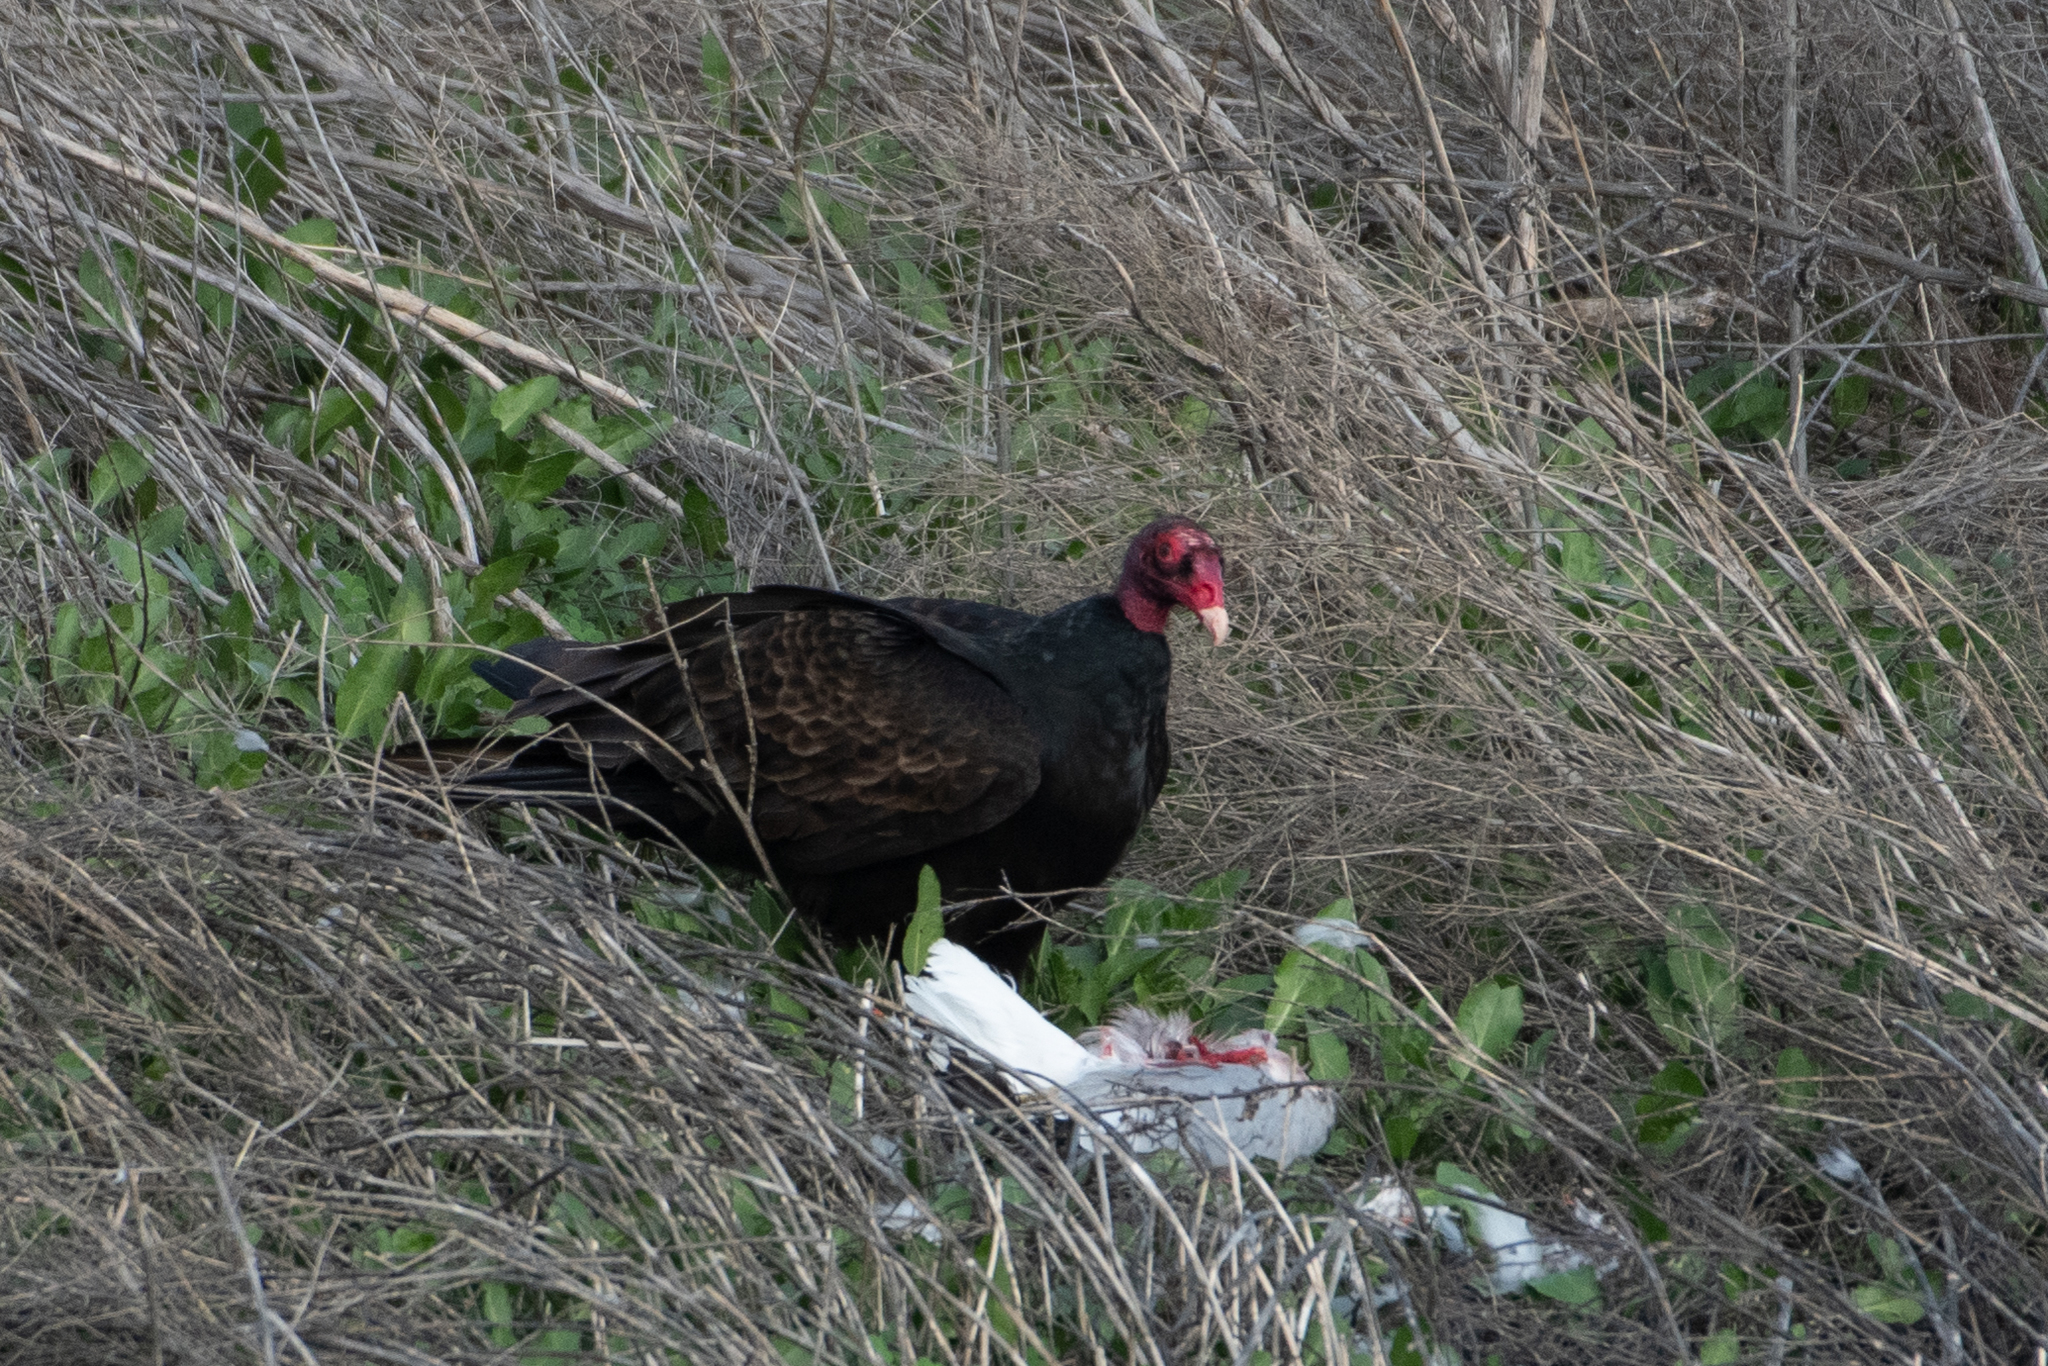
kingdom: Animalia
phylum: Chordata
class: Aves
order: Accipitriformes
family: Cathartidae
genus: Cathartes
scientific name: Cathartes aura
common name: Turkey vulture
